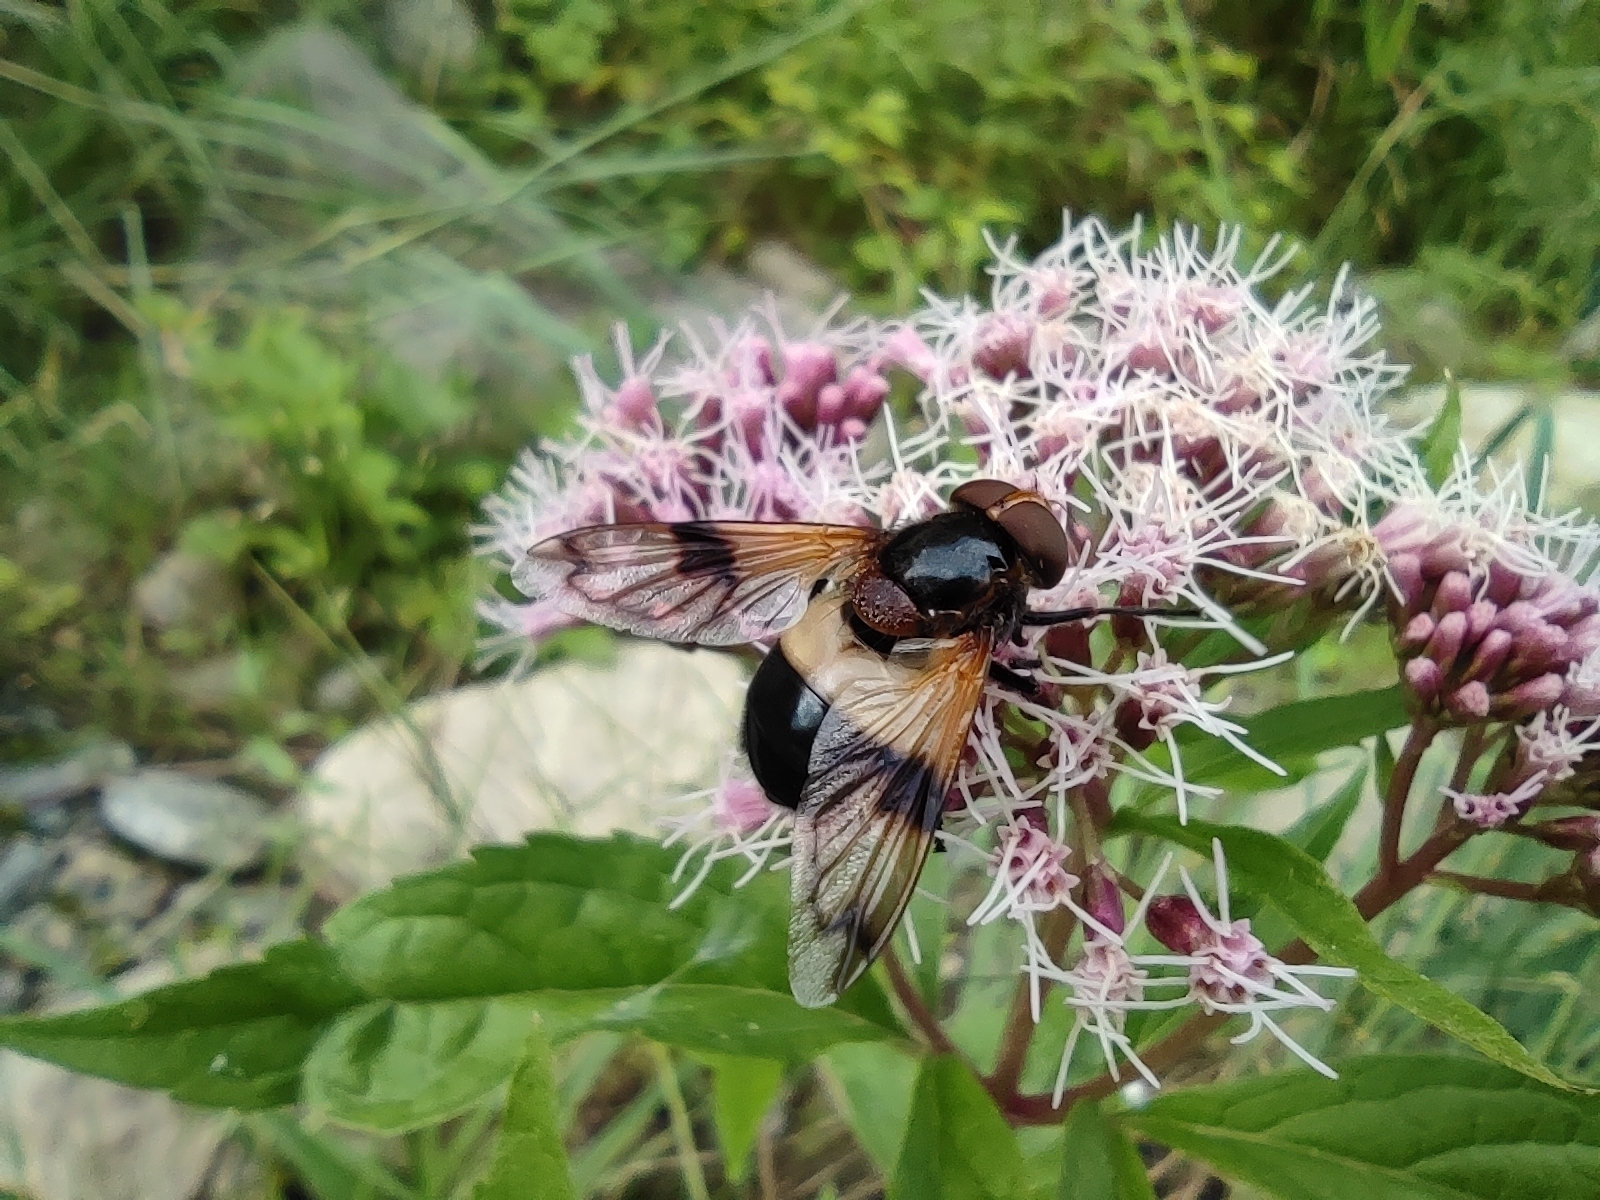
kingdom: Animalia
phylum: Arthropoda
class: Insecta
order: Diptera
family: Syrphidae
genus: Volucella
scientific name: Volucella pellucens
